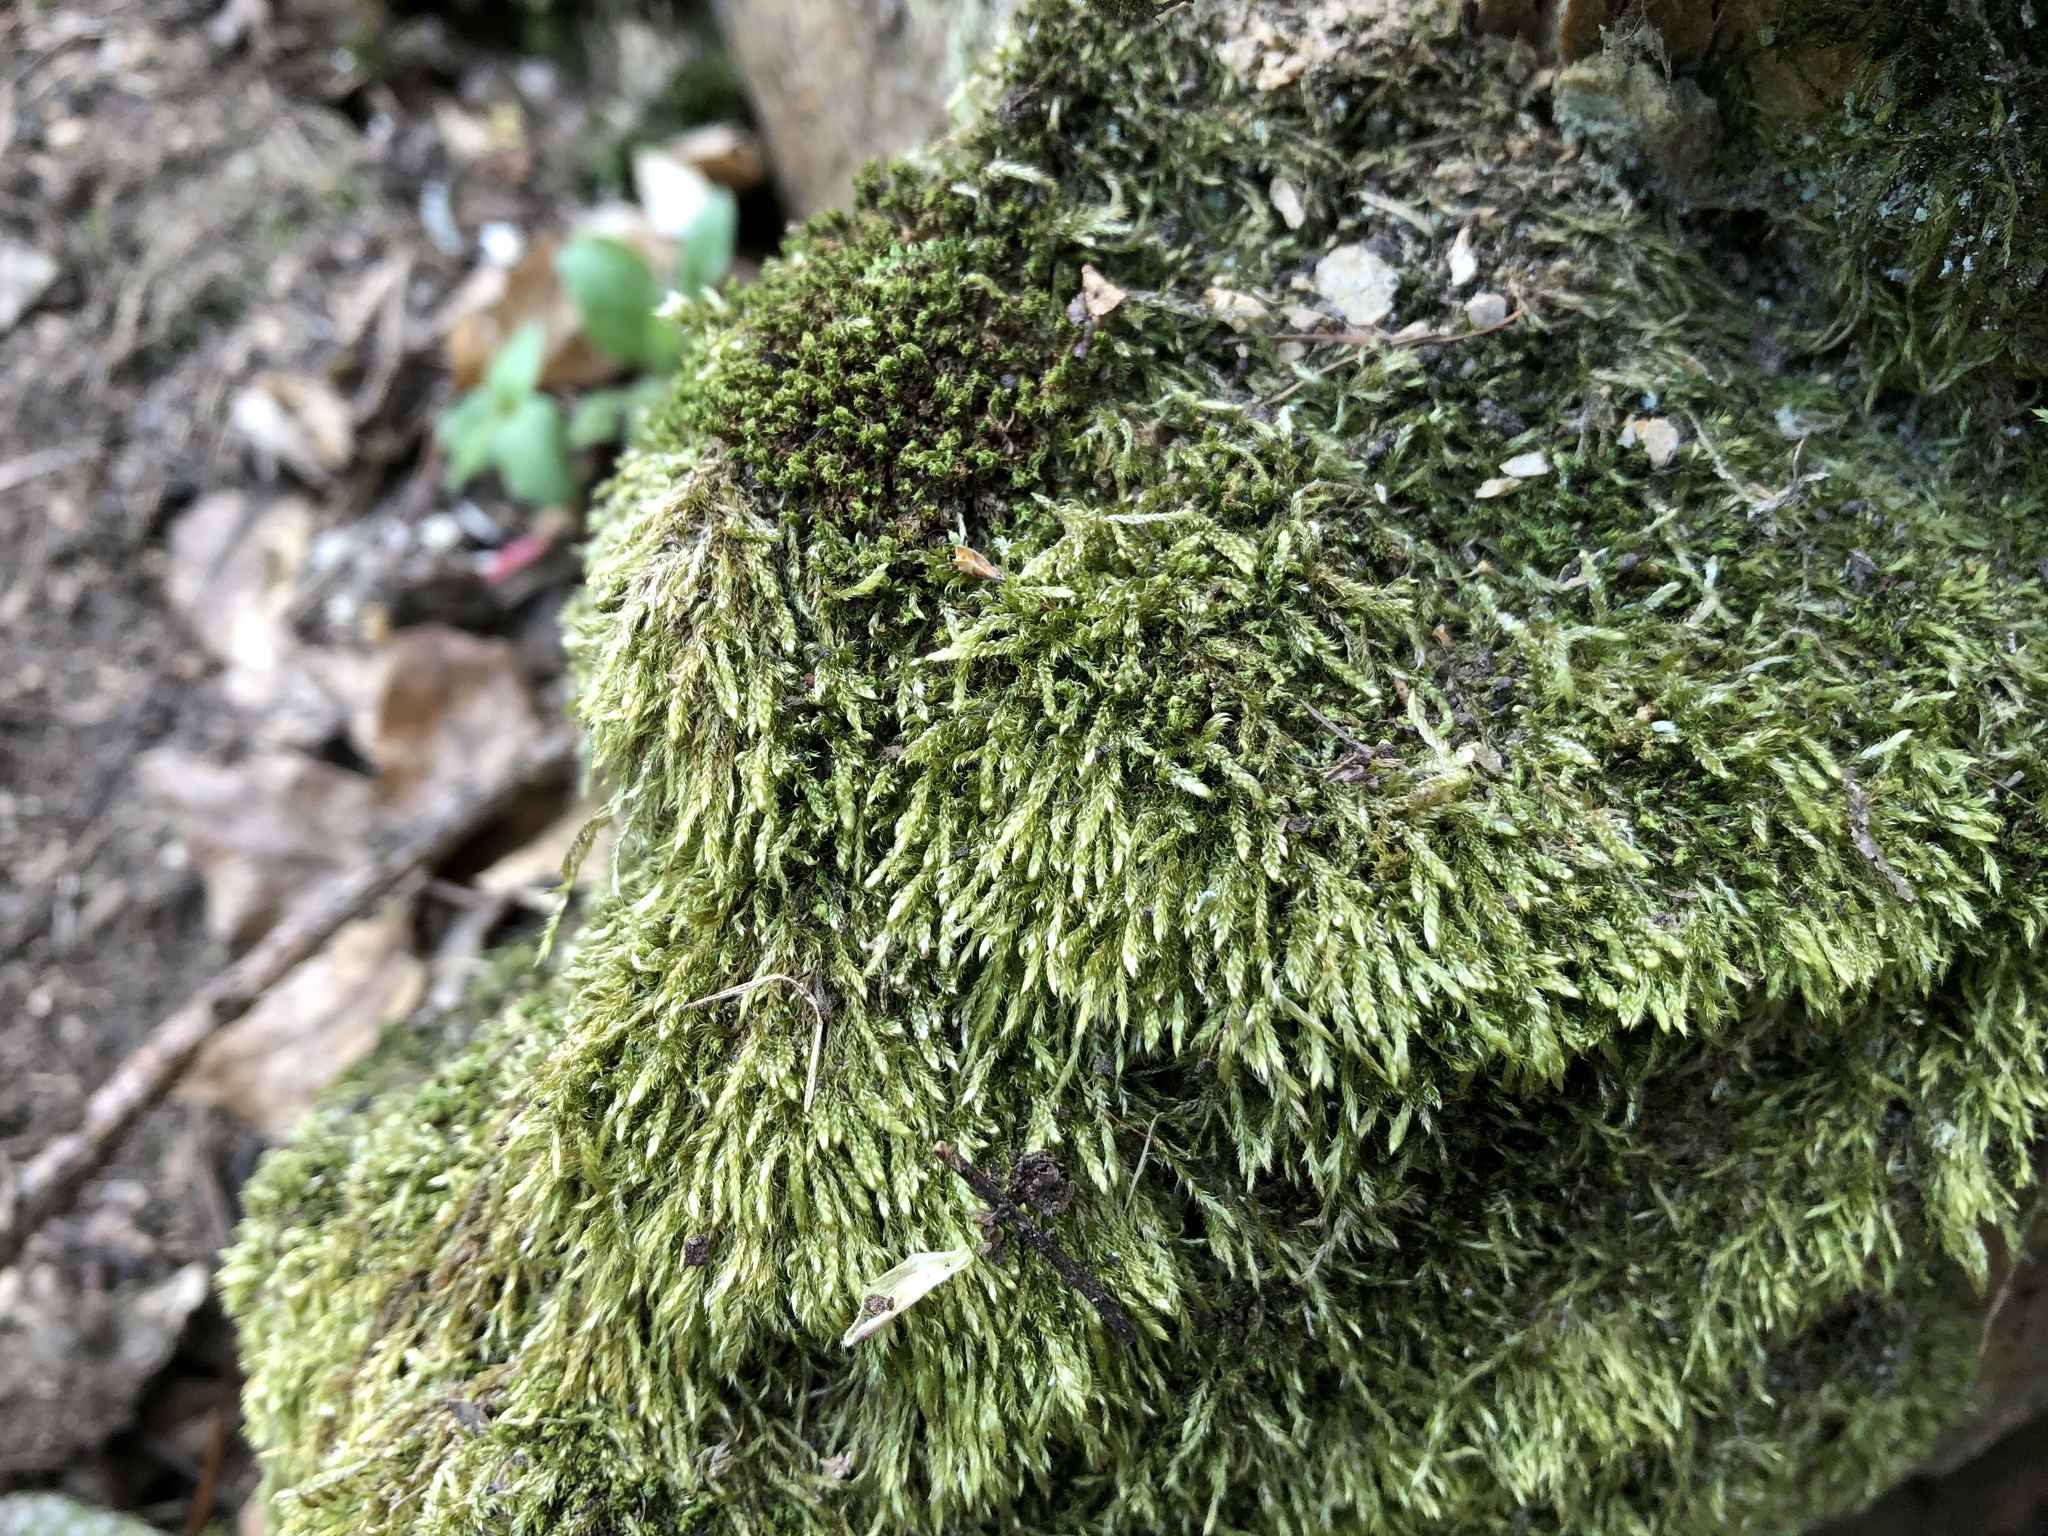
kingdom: Plantae
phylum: Bryophyta
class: Bryopsida
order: Hypnales
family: Hypnaceae
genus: Hypnum
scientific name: Hypnum cupressiforme
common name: Cypress-leaved plait-moss
